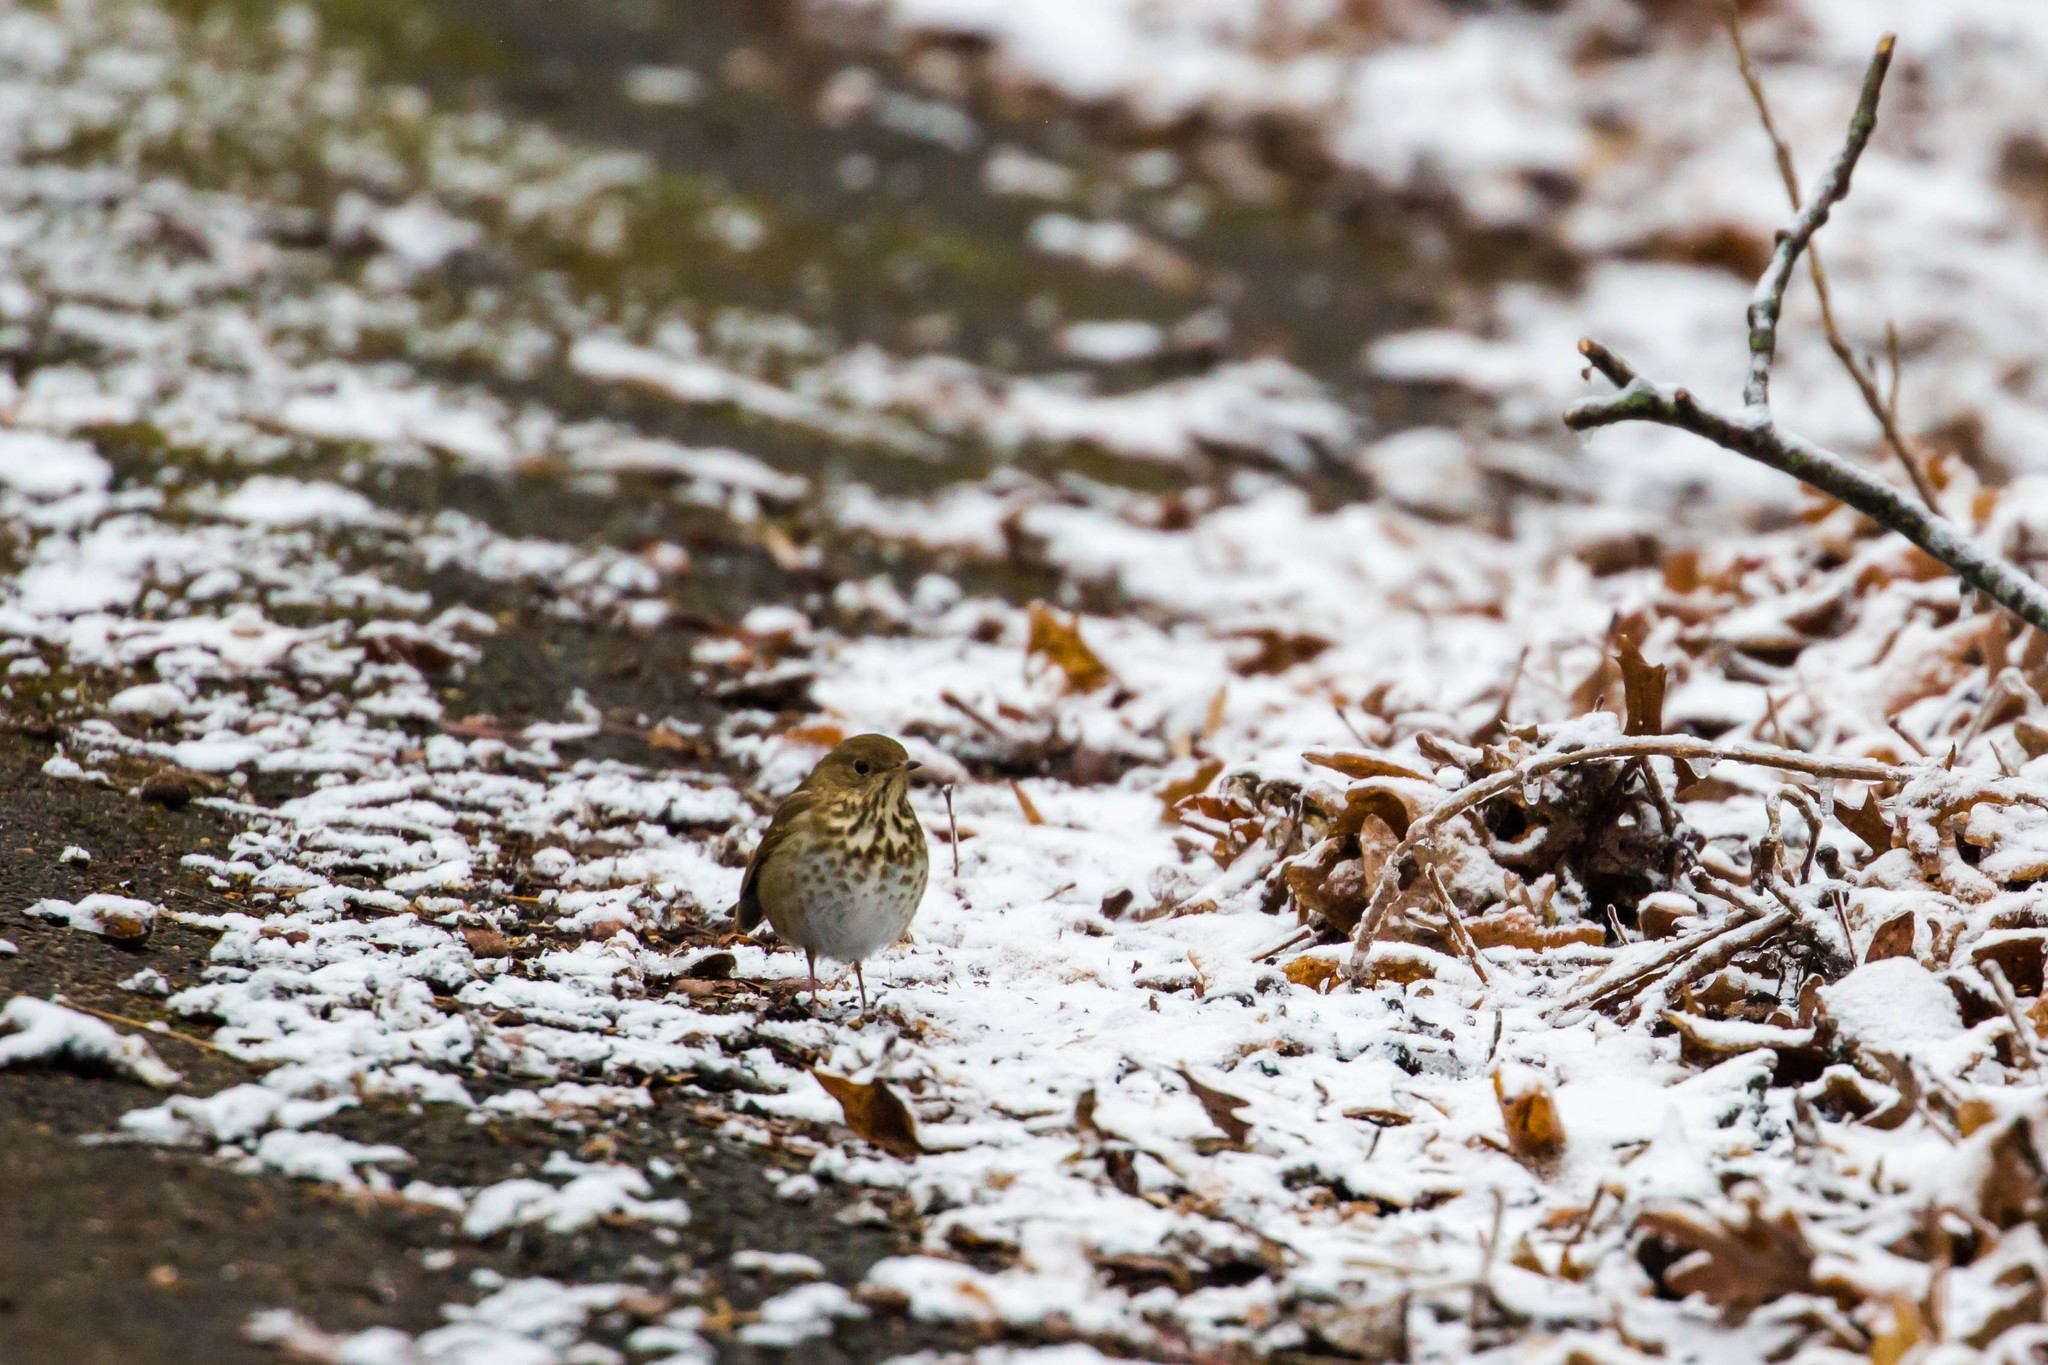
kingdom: Animalia
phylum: Chordata
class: Aves
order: Passeriformes
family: Turdidae
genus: Catharus
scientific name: Catharus guttatus
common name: Hermit thrush
